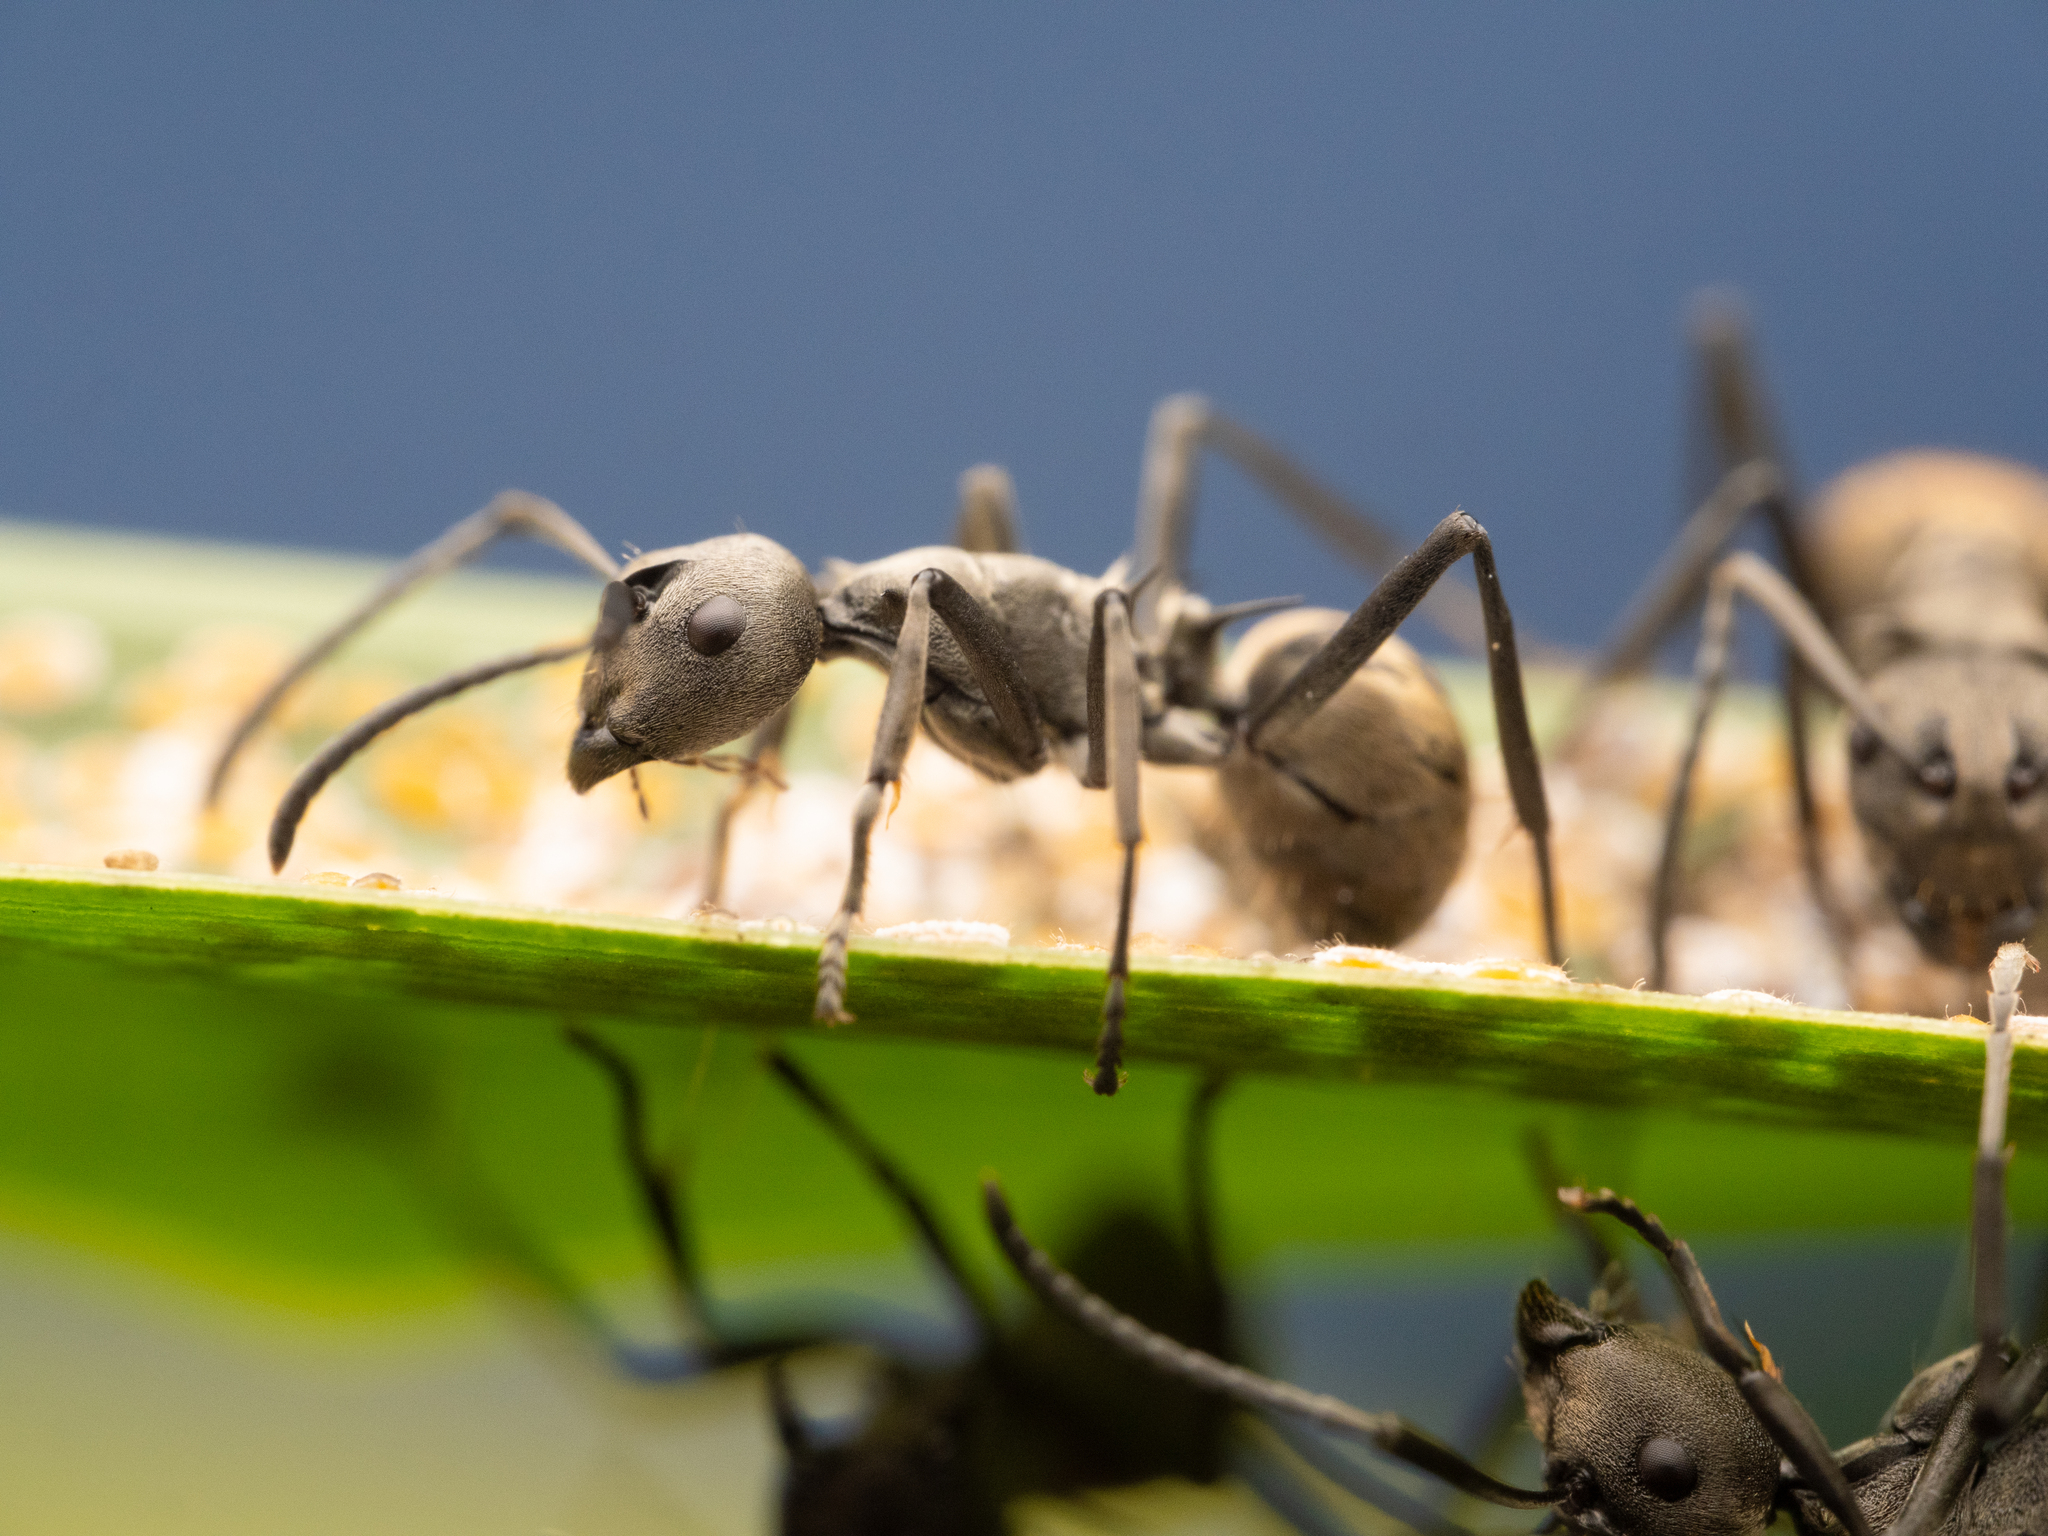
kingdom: Animalia
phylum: Arthropoda
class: Insecta
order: Hymenoptera
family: Formicidae
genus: Polyrhachis
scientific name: Polyrhachis dives
